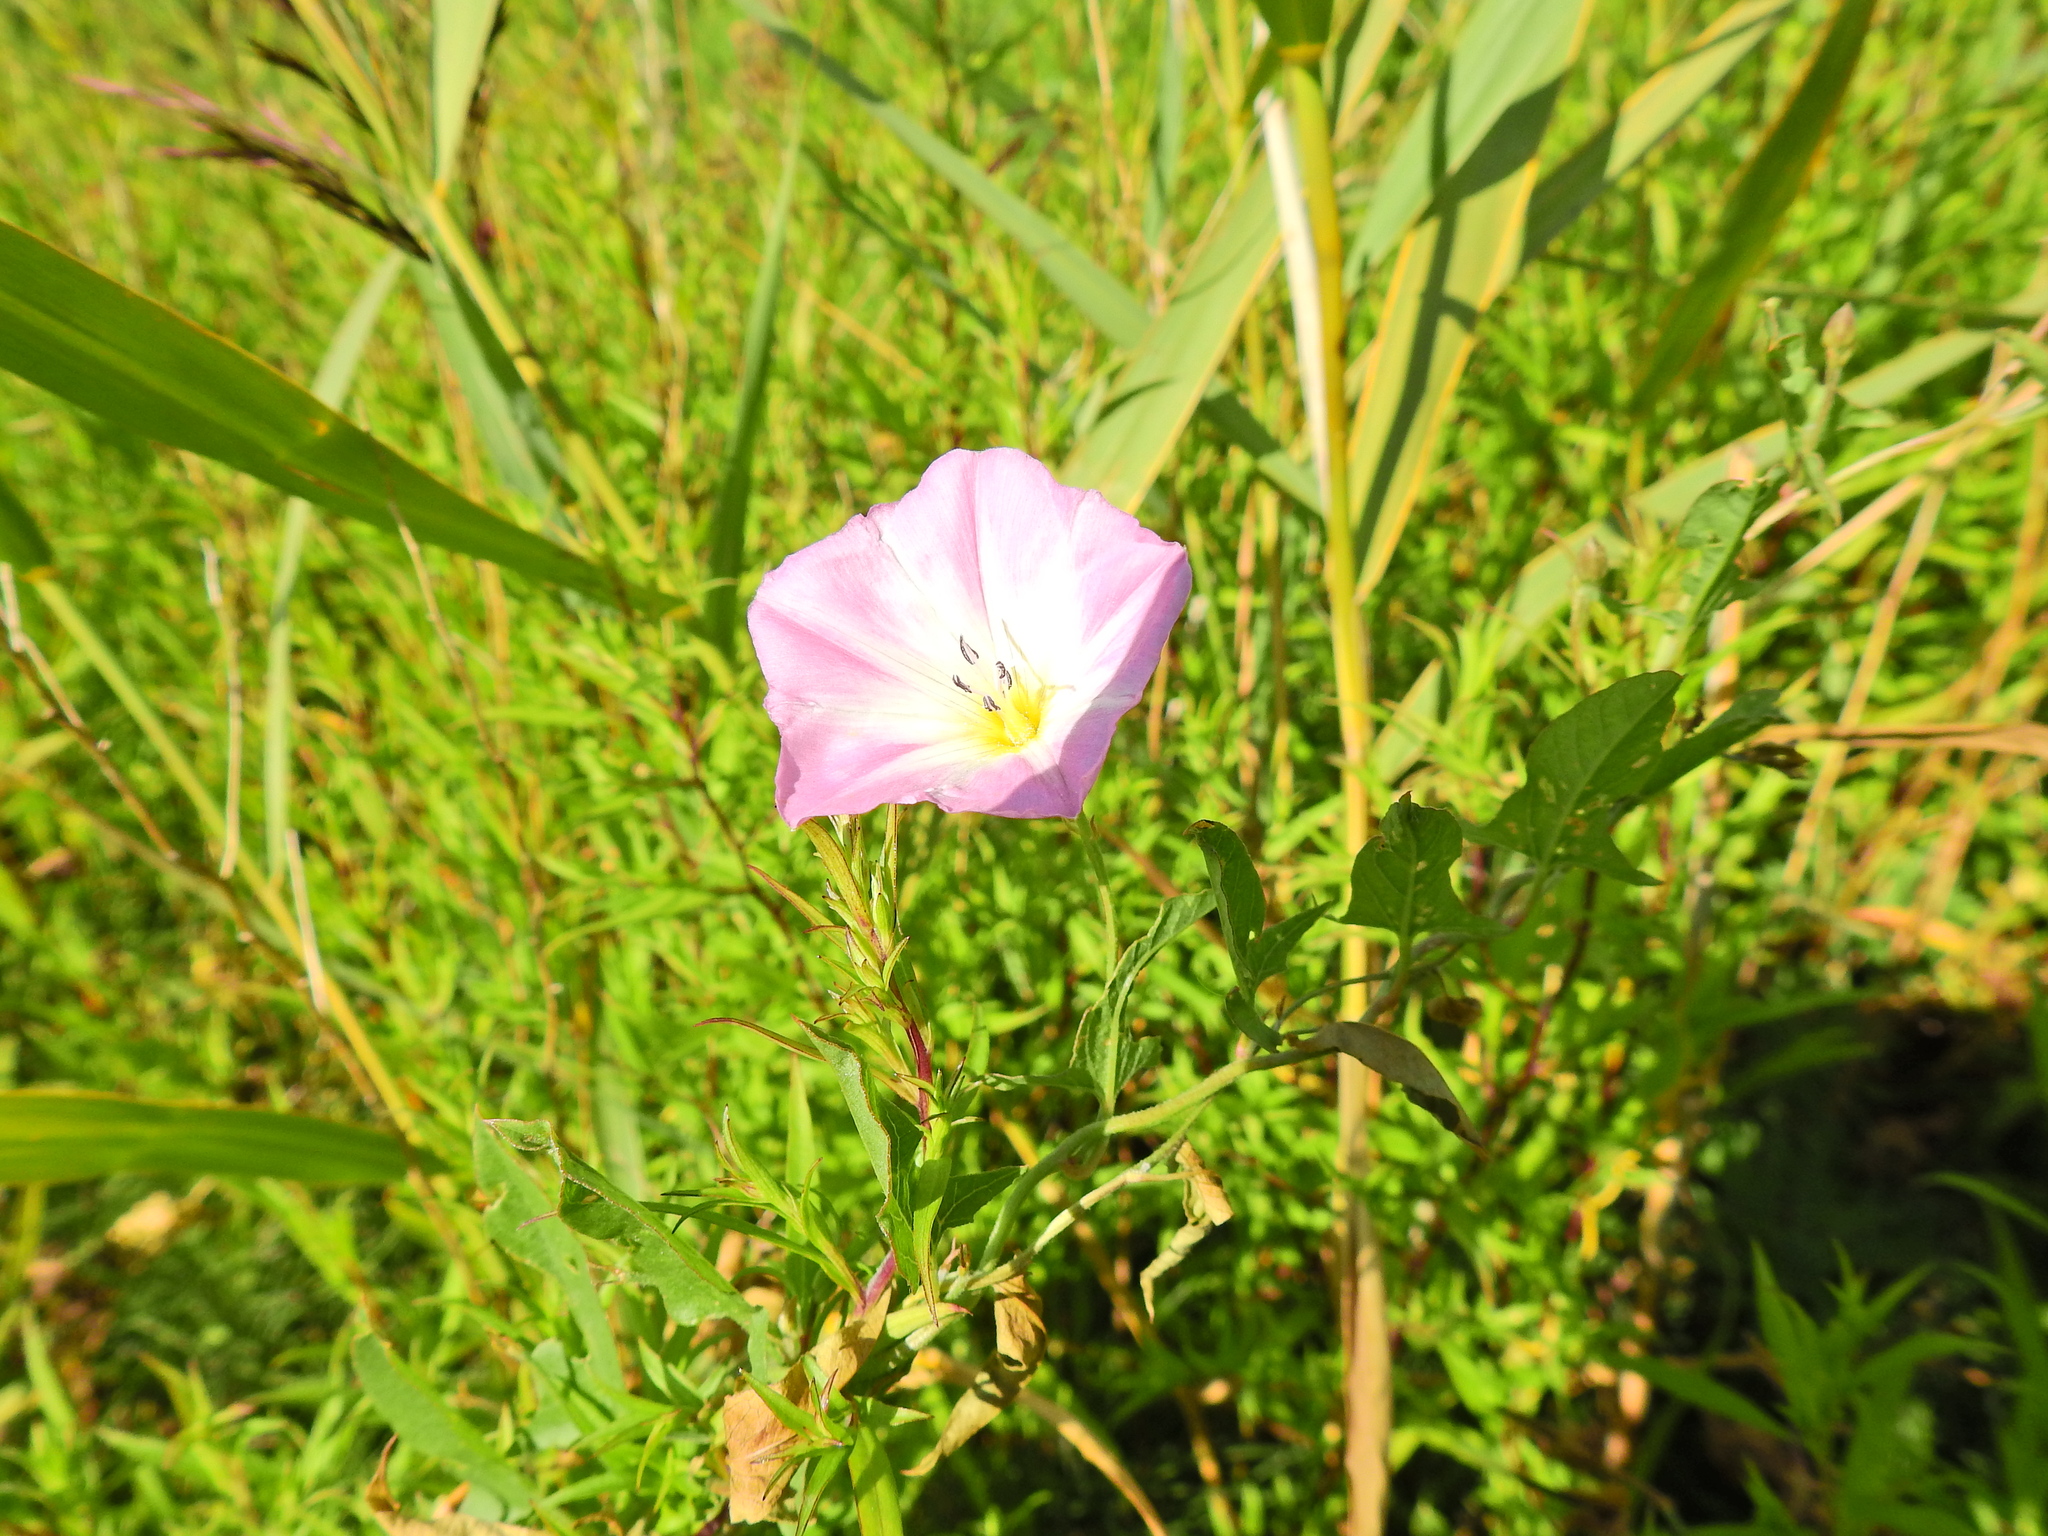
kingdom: Plantae
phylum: Tracheophyta
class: Magnoliopsida
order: Solanales
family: Convolvulaceae
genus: Convolvulus
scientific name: Convolvulus arvensis
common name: Field bindweed
